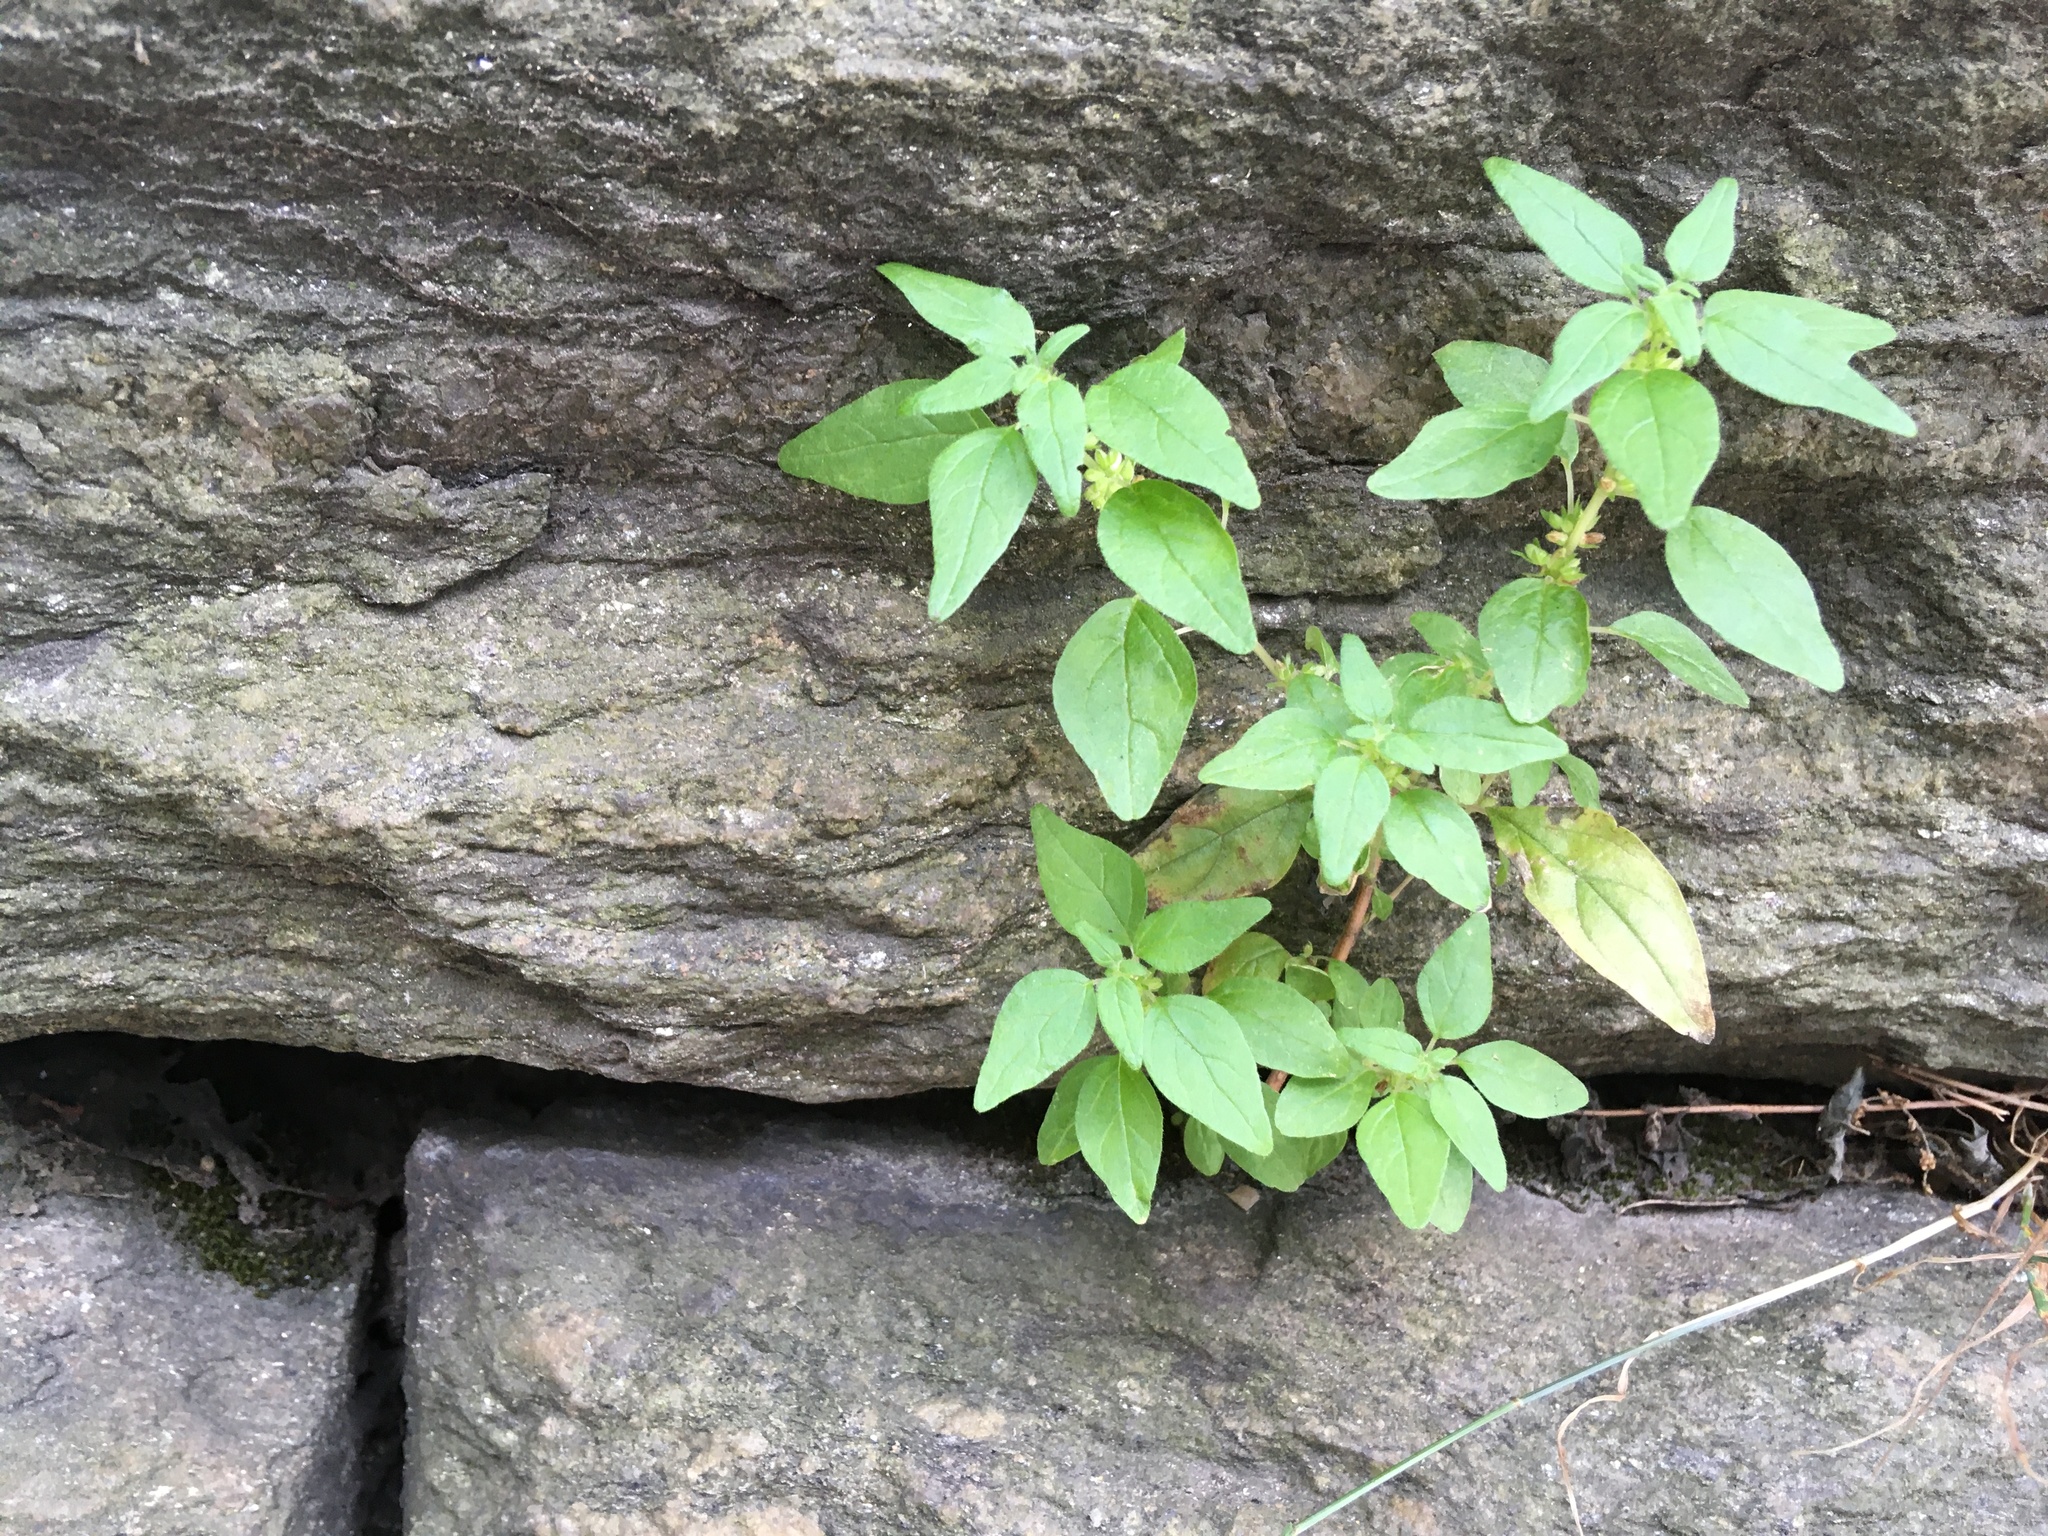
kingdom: Plantae
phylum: Tracheophyta
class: Magnoliopsida
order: Rosales
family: Urticaceae
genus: Parietaria
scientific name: Parietaria pensylvanica
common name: Pennsylvania pellitory
